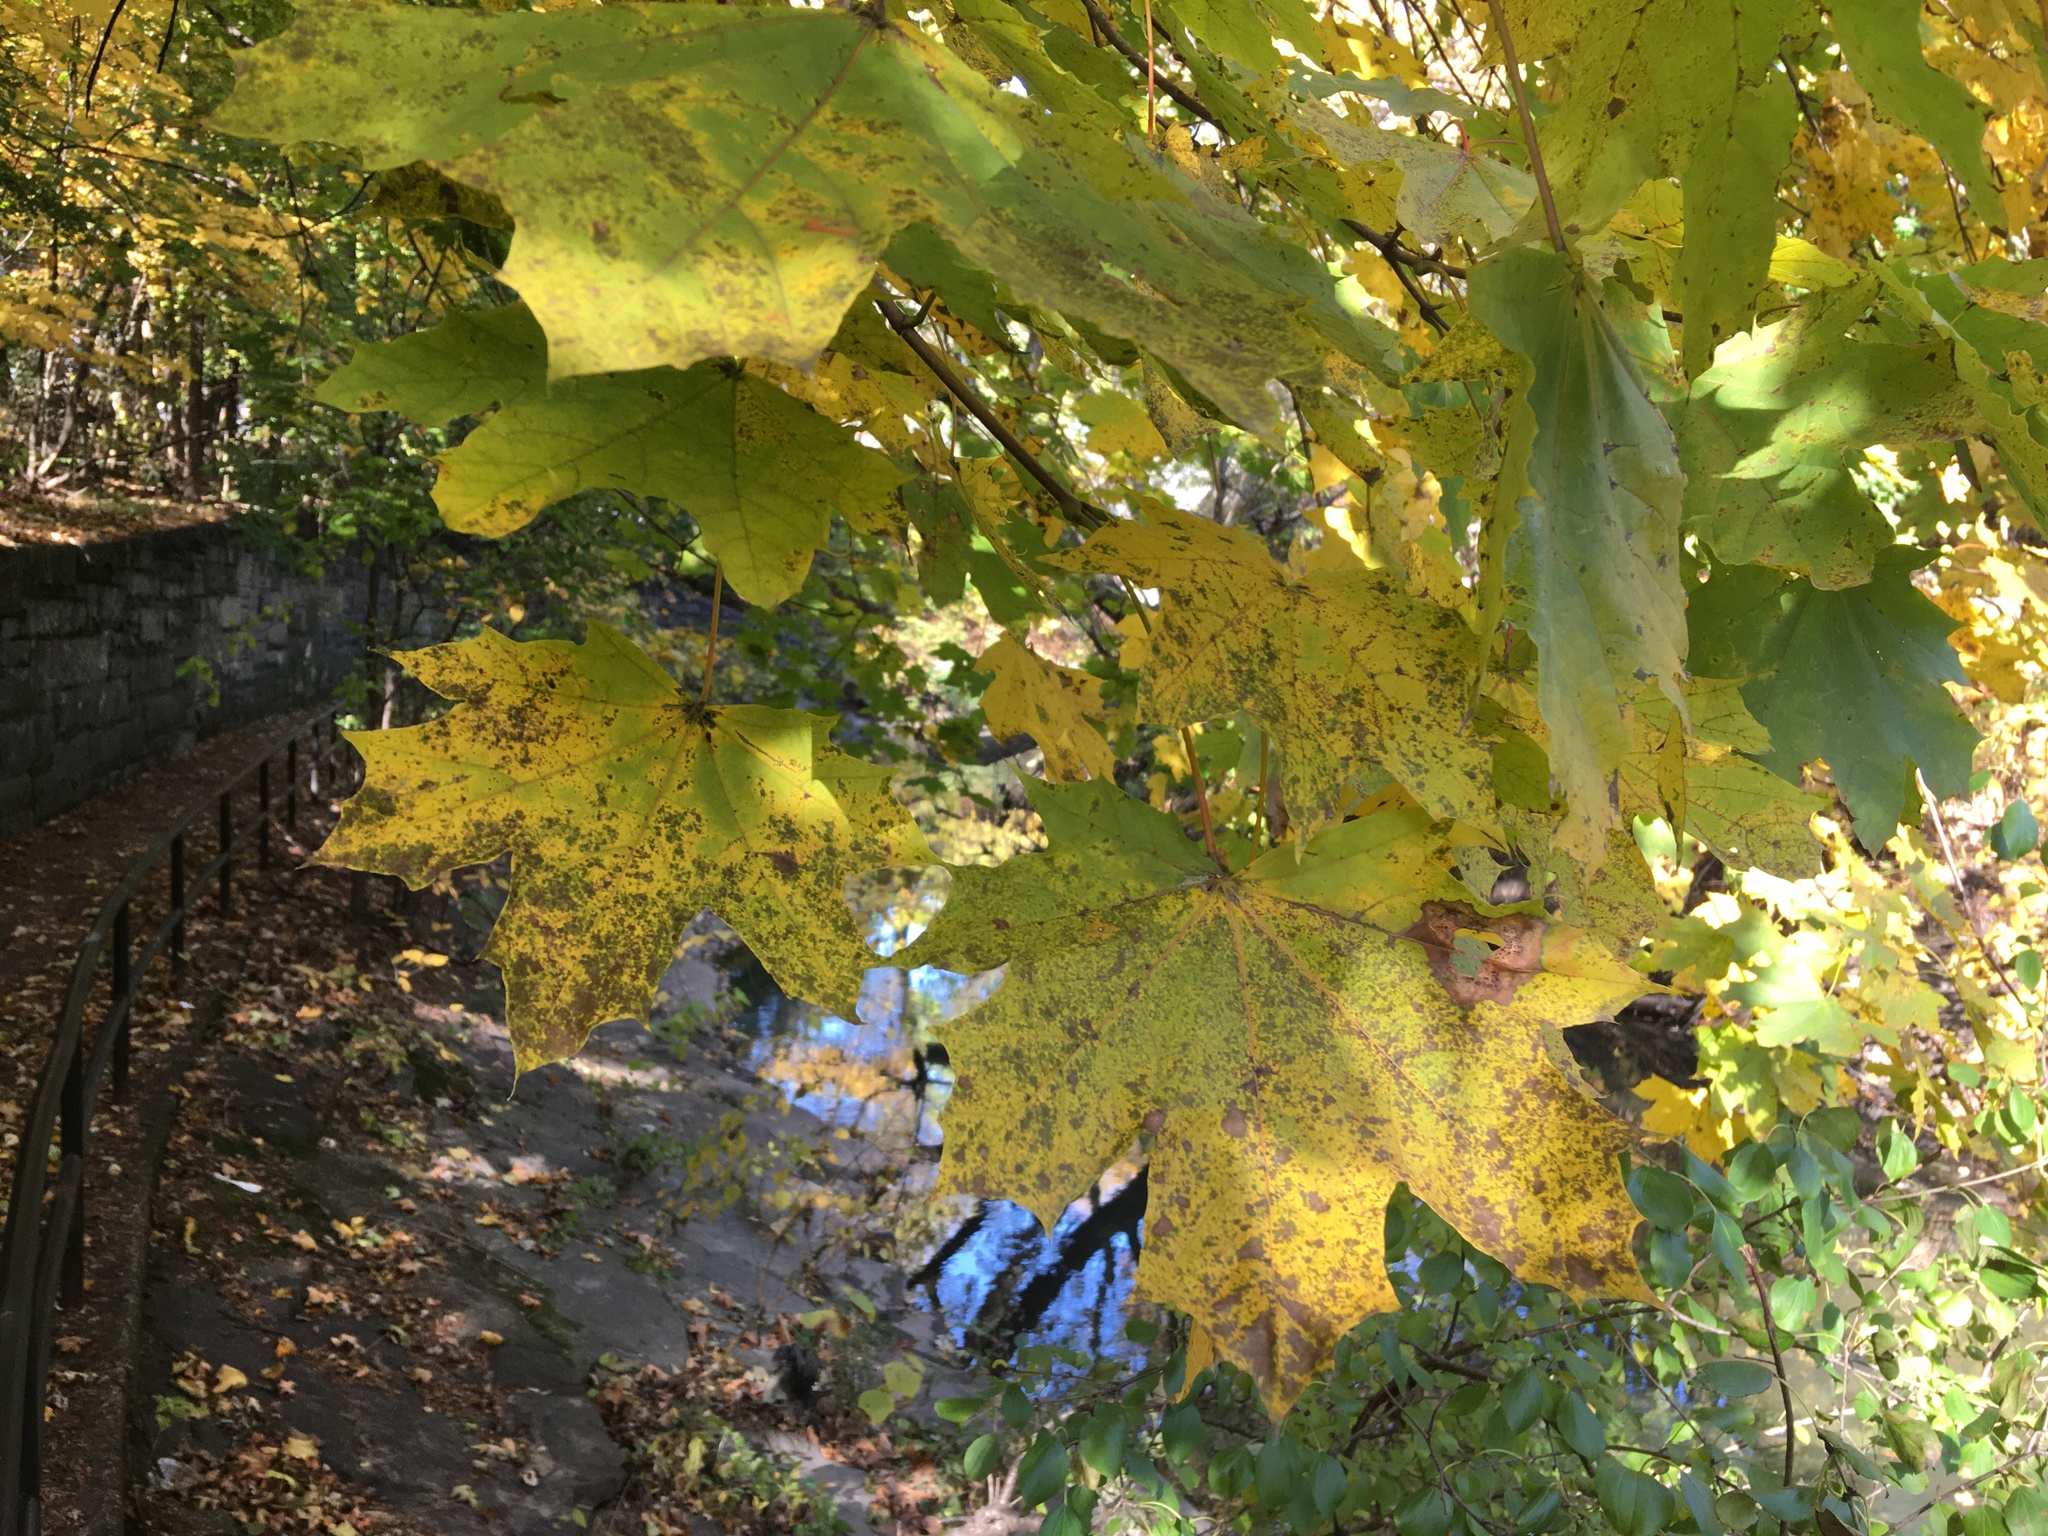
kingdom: Plantae
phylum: Tracheophyta
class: Magnoliopsida
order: Sapindales
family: Sapindaceae
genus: Acer
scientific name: Acer platanoides
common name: Norway maple
